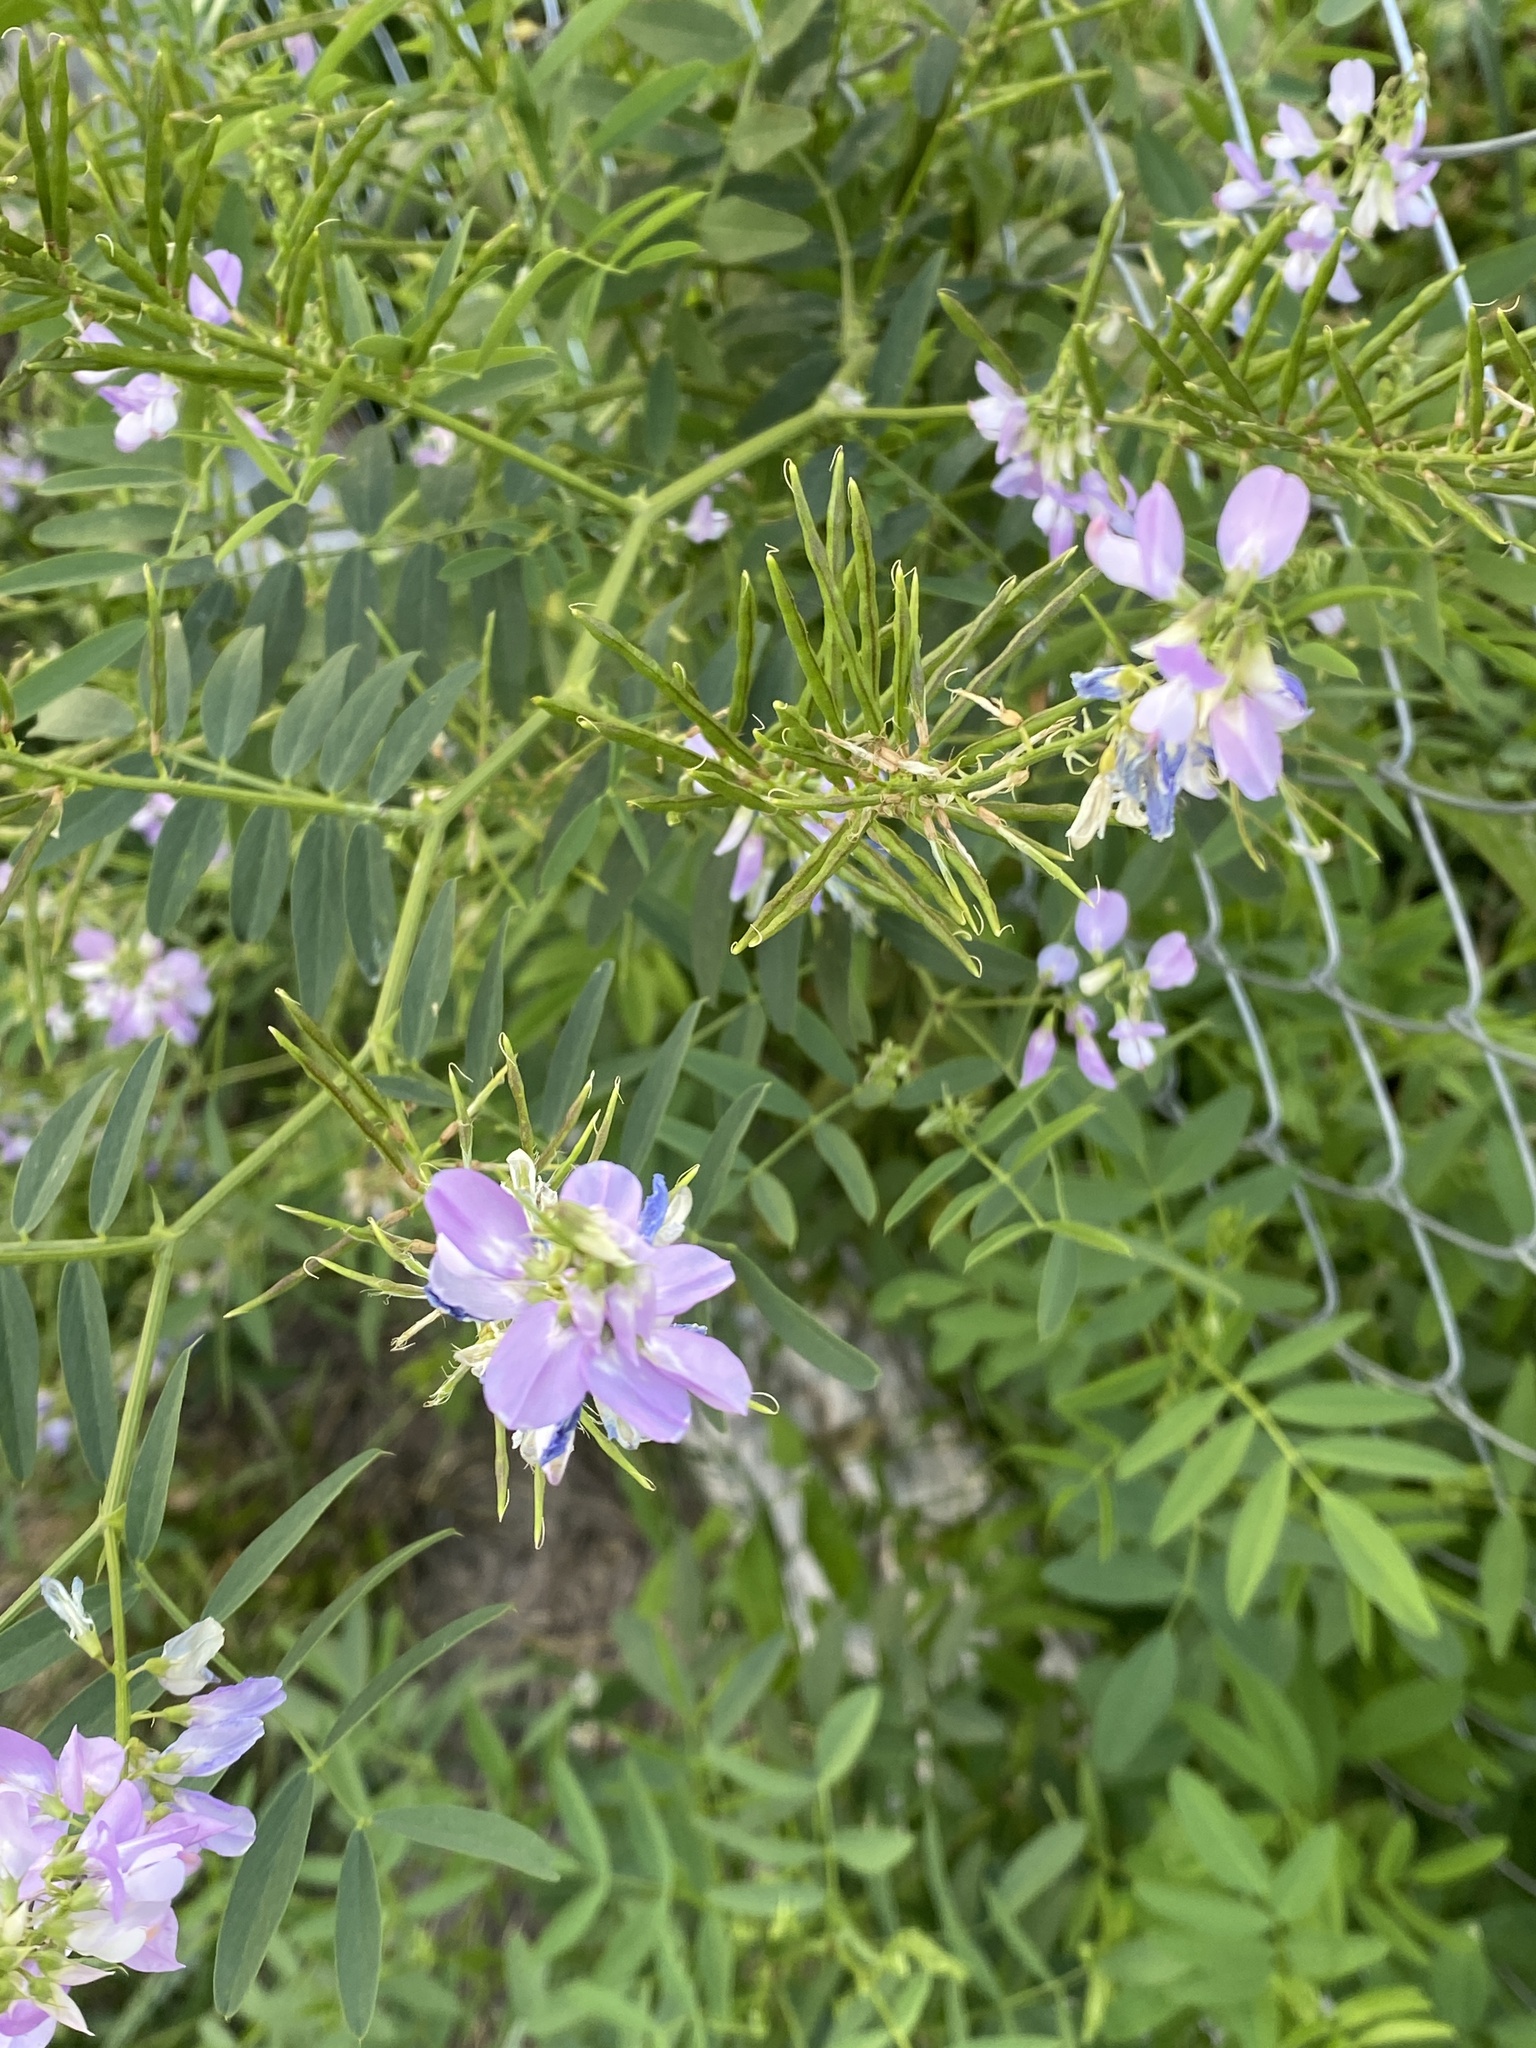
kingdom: Plantae
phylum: Tracheophyta
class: Magnoliopsida
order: Fabales
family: Fabaceae
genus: Galega
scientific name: Galega officinalis
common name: Goat's-rue
